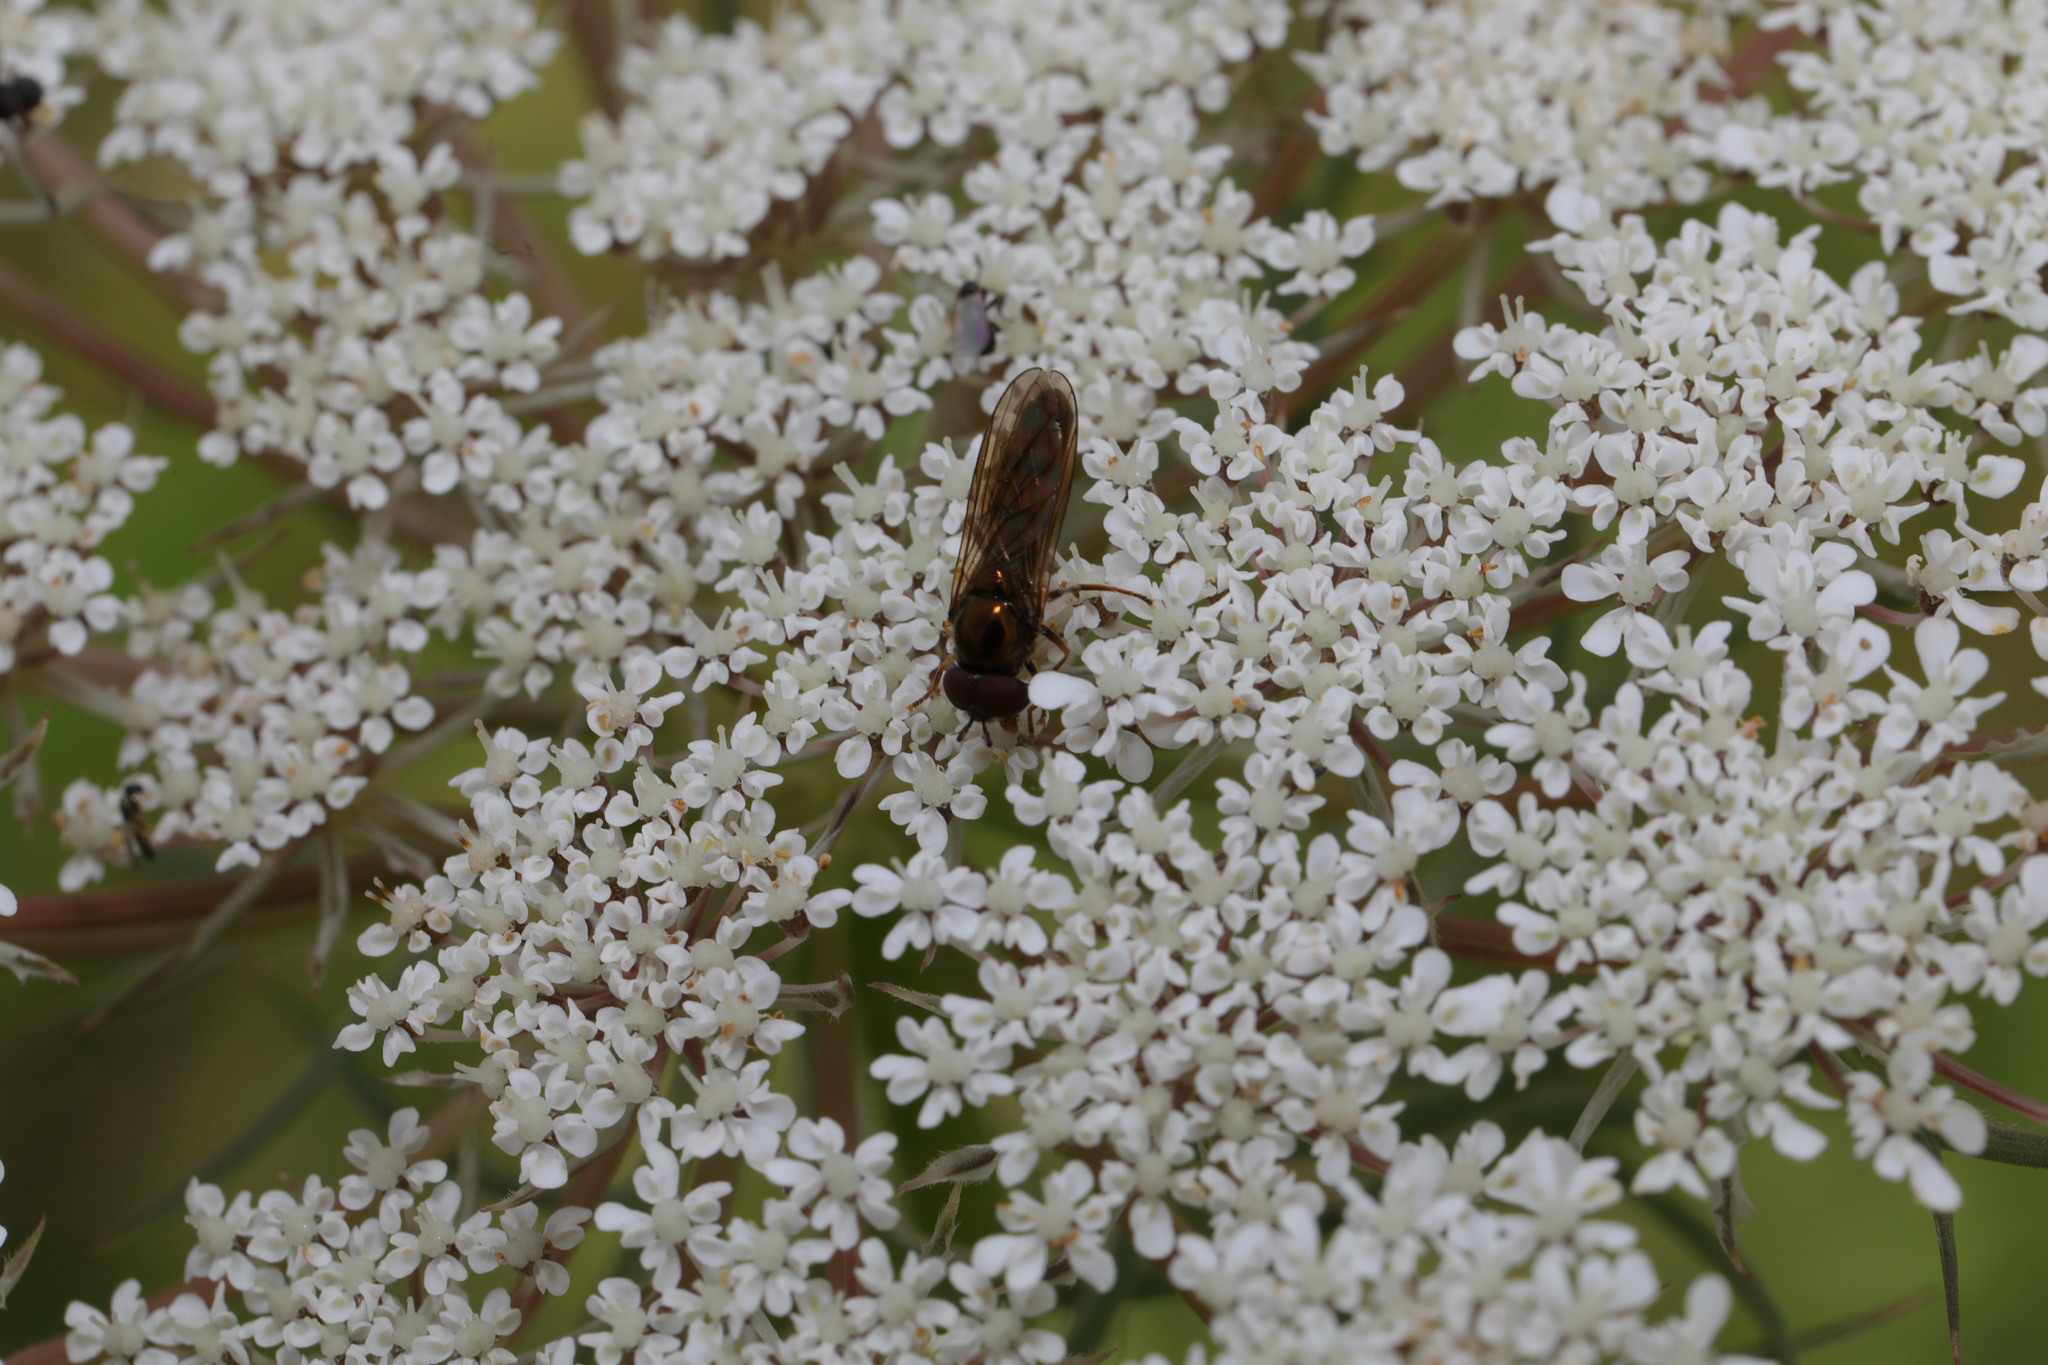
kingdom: Animalia
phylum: Arthropoda
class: Insecta
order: Diptera
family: Syrphidae
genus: Melanostoma
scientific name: Melanostoma mellina
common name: Hover fly
